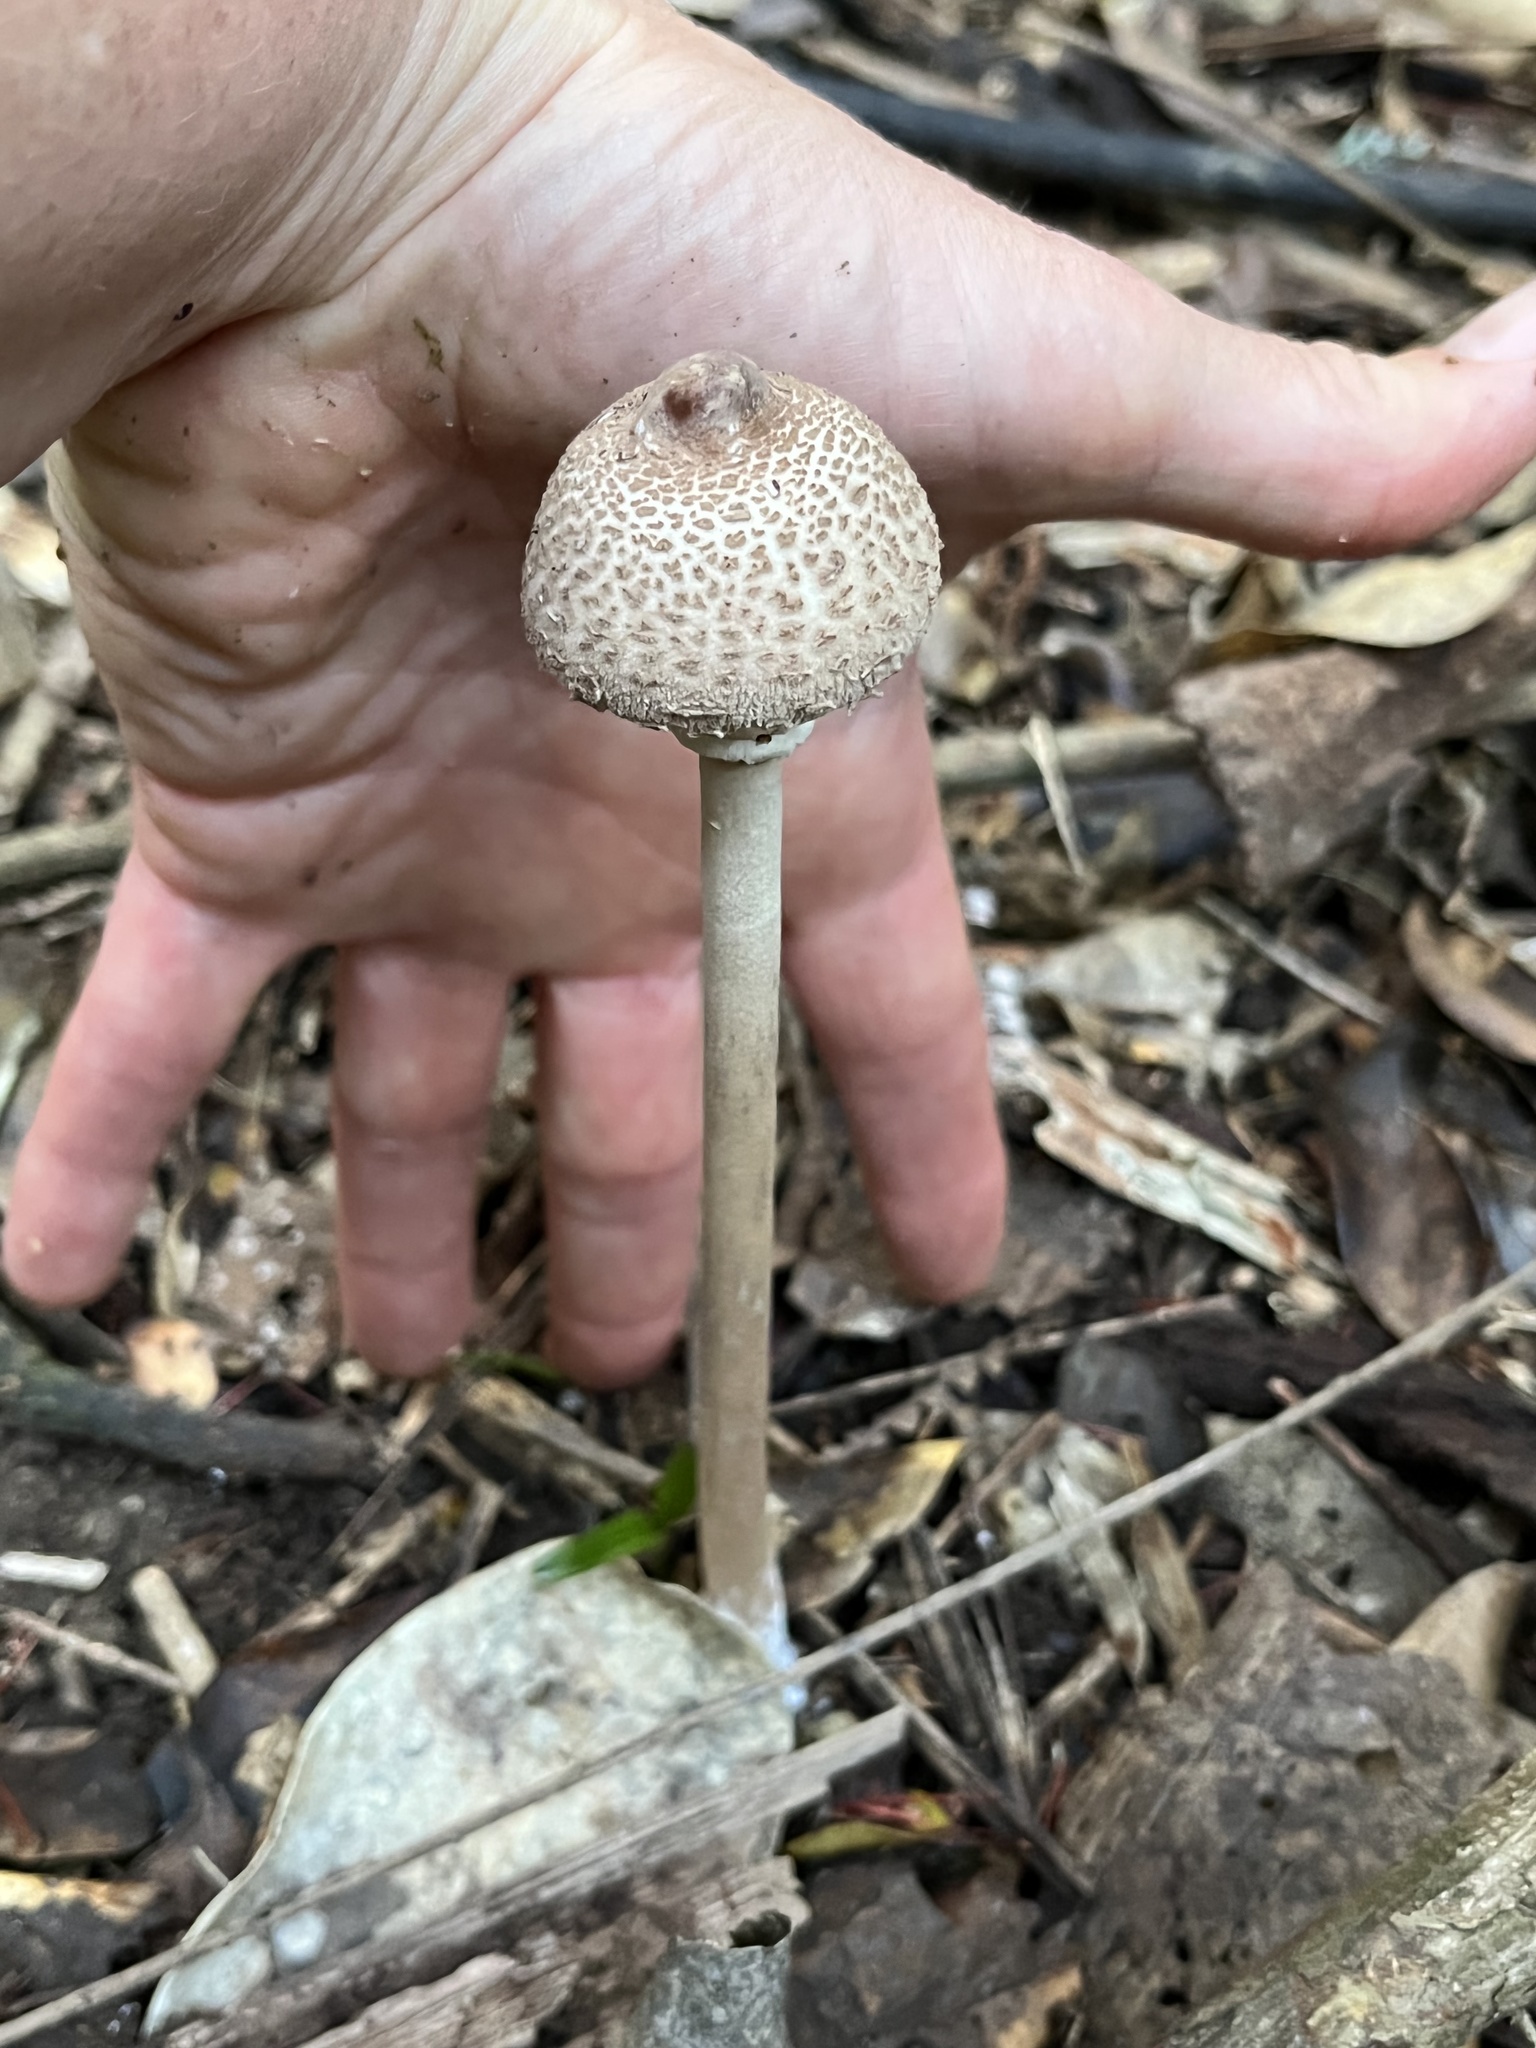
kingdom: Fungi
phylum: Basidiomycota
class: Agaricomycetes
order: Agaricales
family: Agaricaceae
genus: Macrolepiota
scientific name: Macrolepiota clelandii
